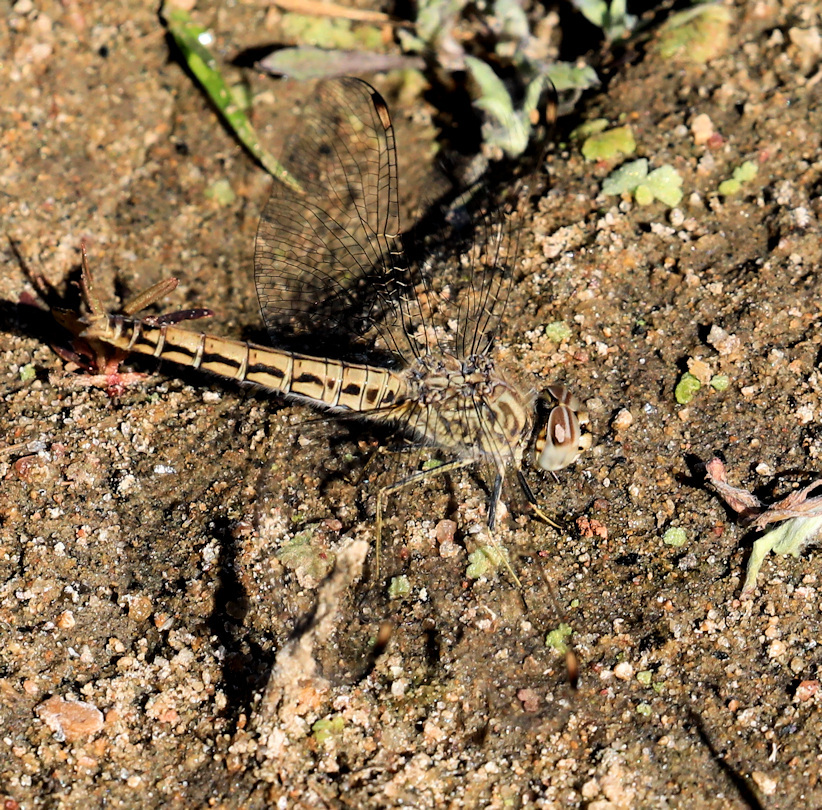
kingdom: Animalia
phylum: Arthropoda
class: Insecta
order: Odonata
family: Libellulidae
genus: Brachythemis
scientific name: Brachythemis leucosticta
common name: Banded groundling
